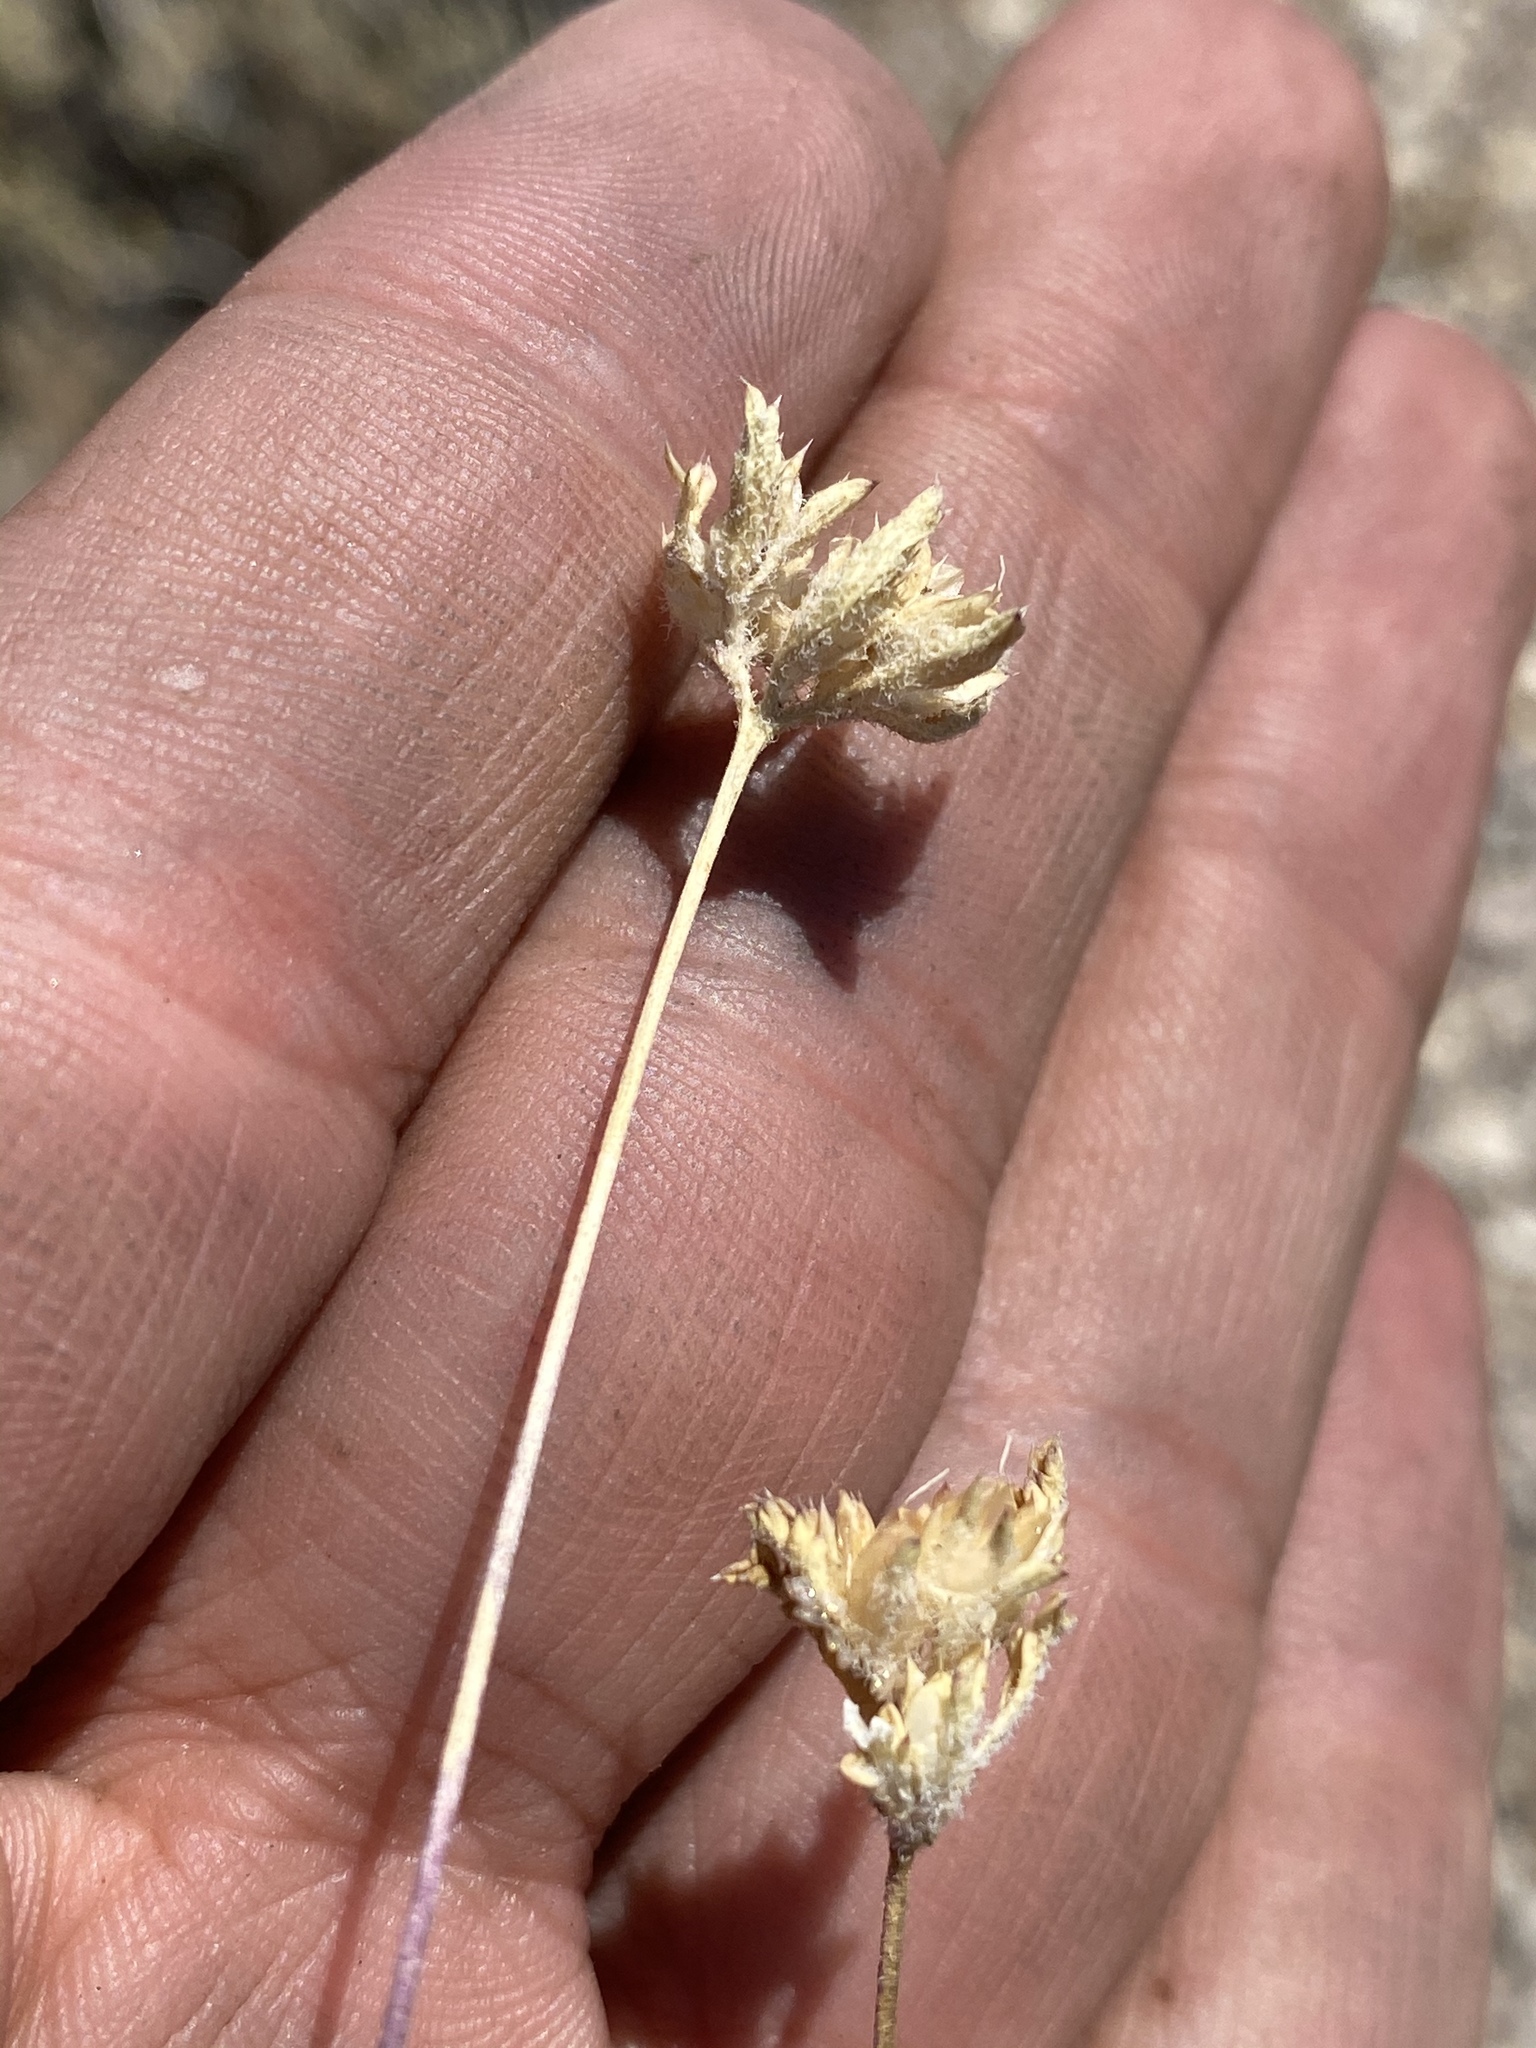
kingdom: Plantae
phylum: Tracheophyta
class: Magnoliopsida
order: Ericales
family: Polemoniaceae
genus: Ipomopsis
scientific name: Ipomopsis polycladon
